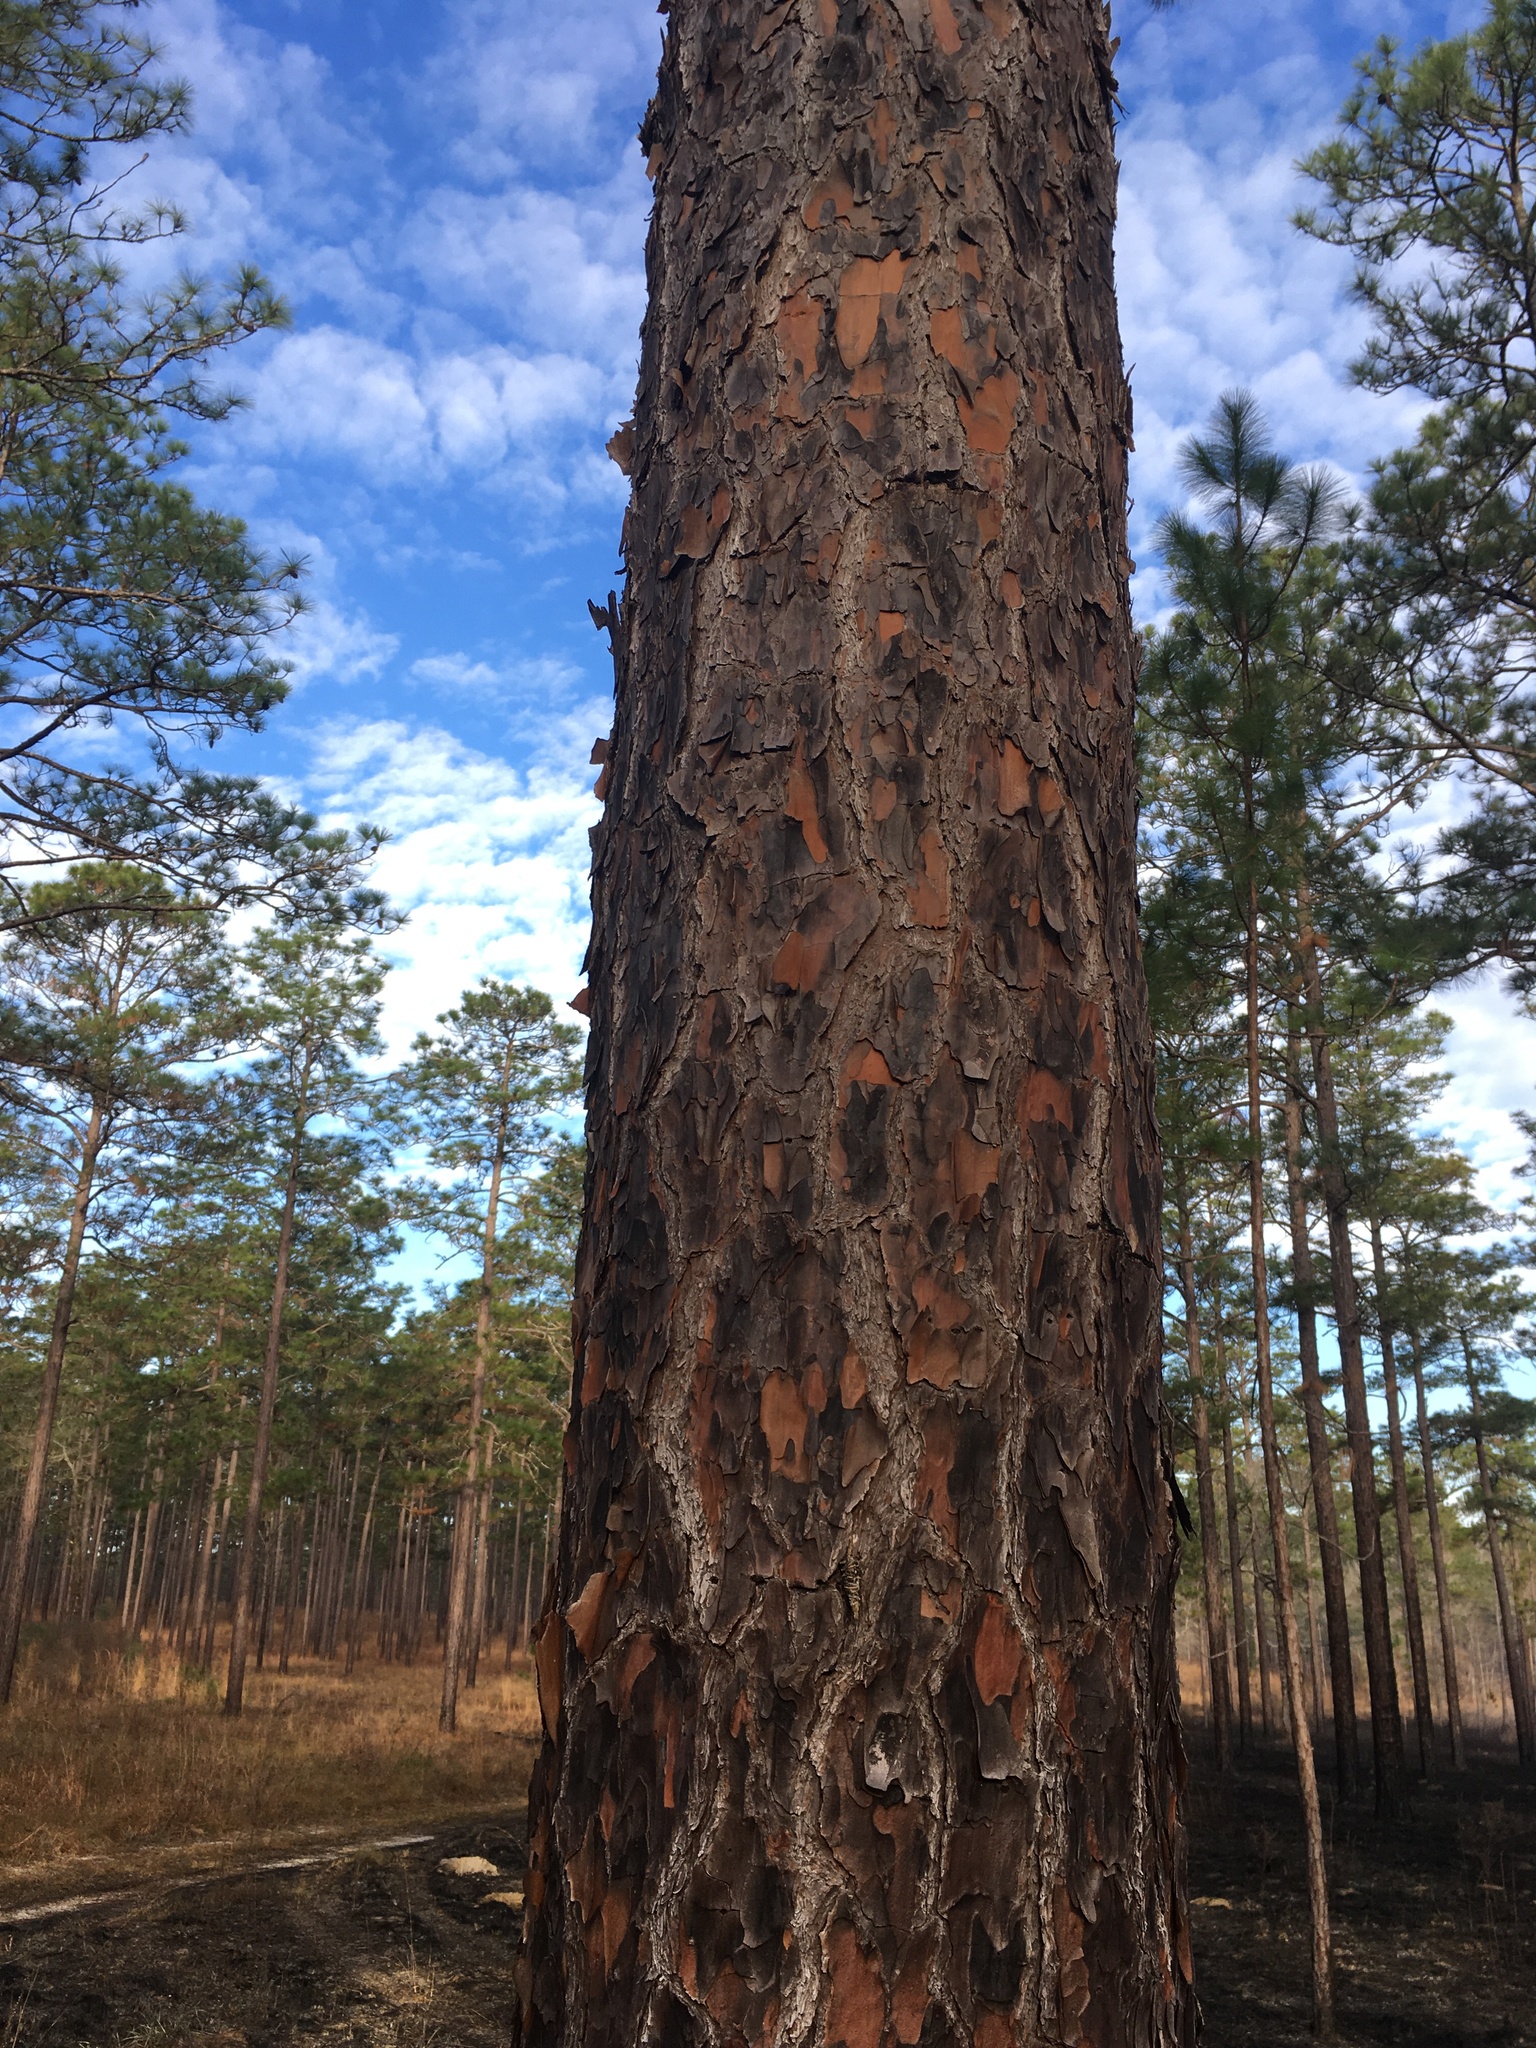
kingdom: Plantae
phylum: Tracheophyta
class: Pinopsida
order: Pinales
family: Pinaceae
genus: Pinus
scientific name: Pinus palustris
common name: Longleaf pine
